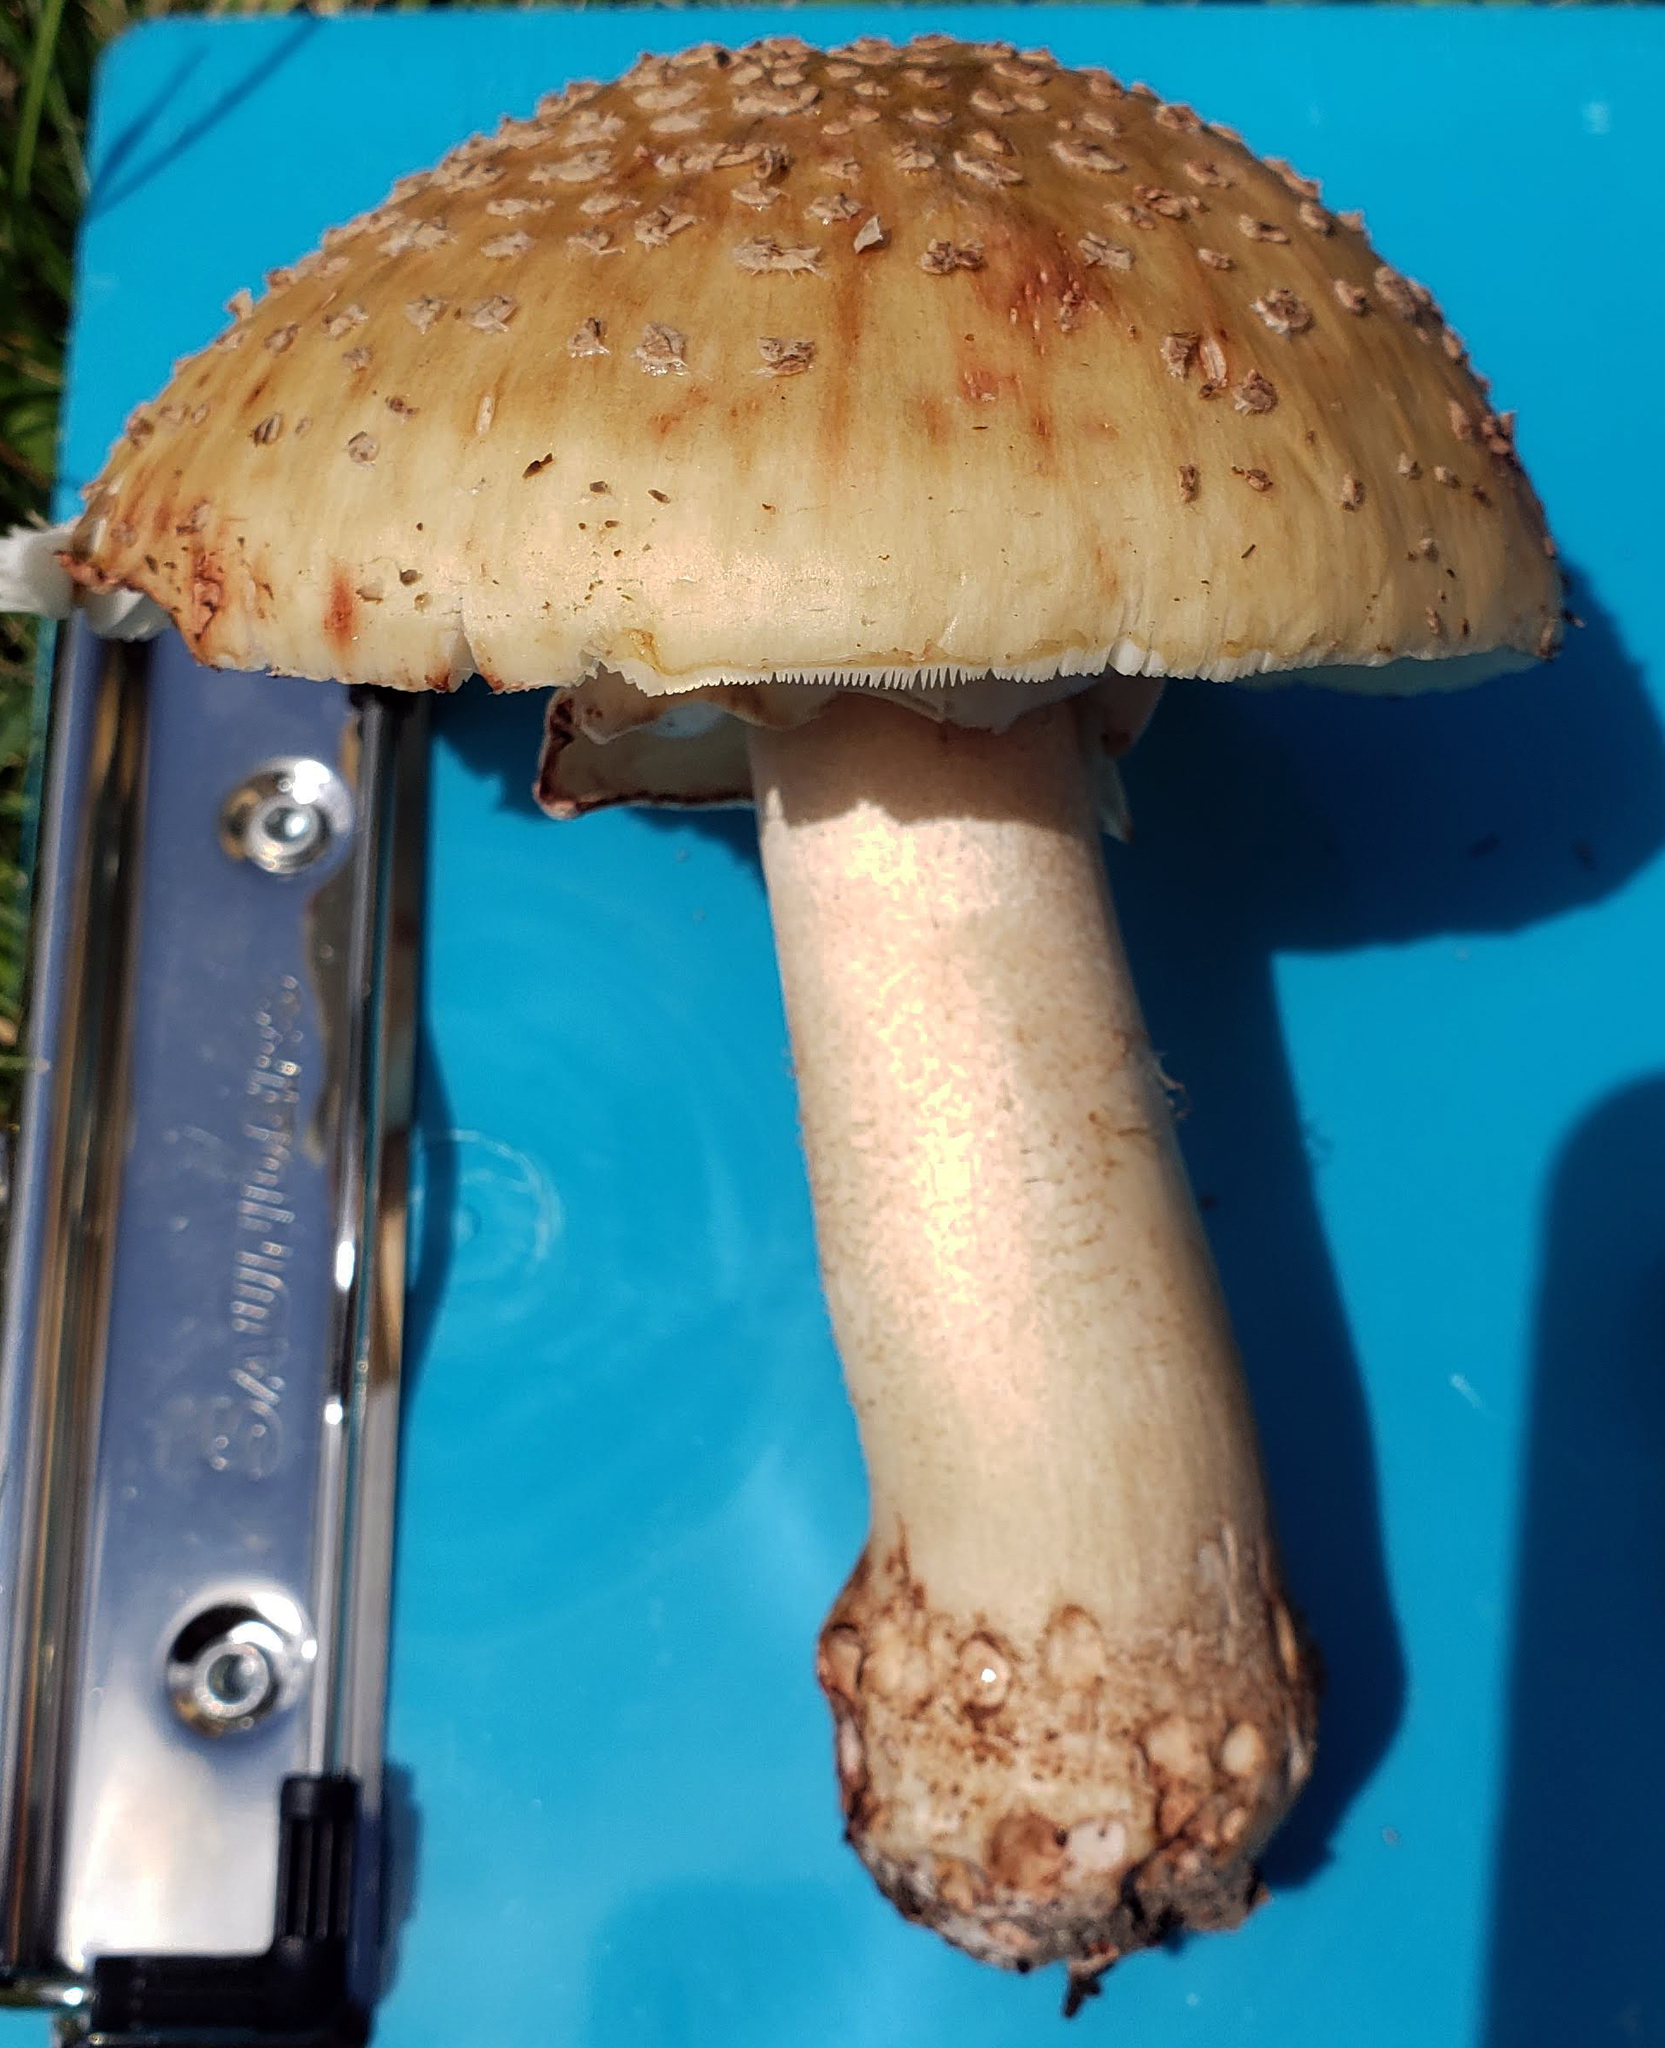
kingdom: Fungi
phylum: Basidiomycota
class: Agaricomycetes
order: Agaricales
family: Amanitaceae
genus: Amanita
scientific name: Amanita rubescens
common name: Blusher
